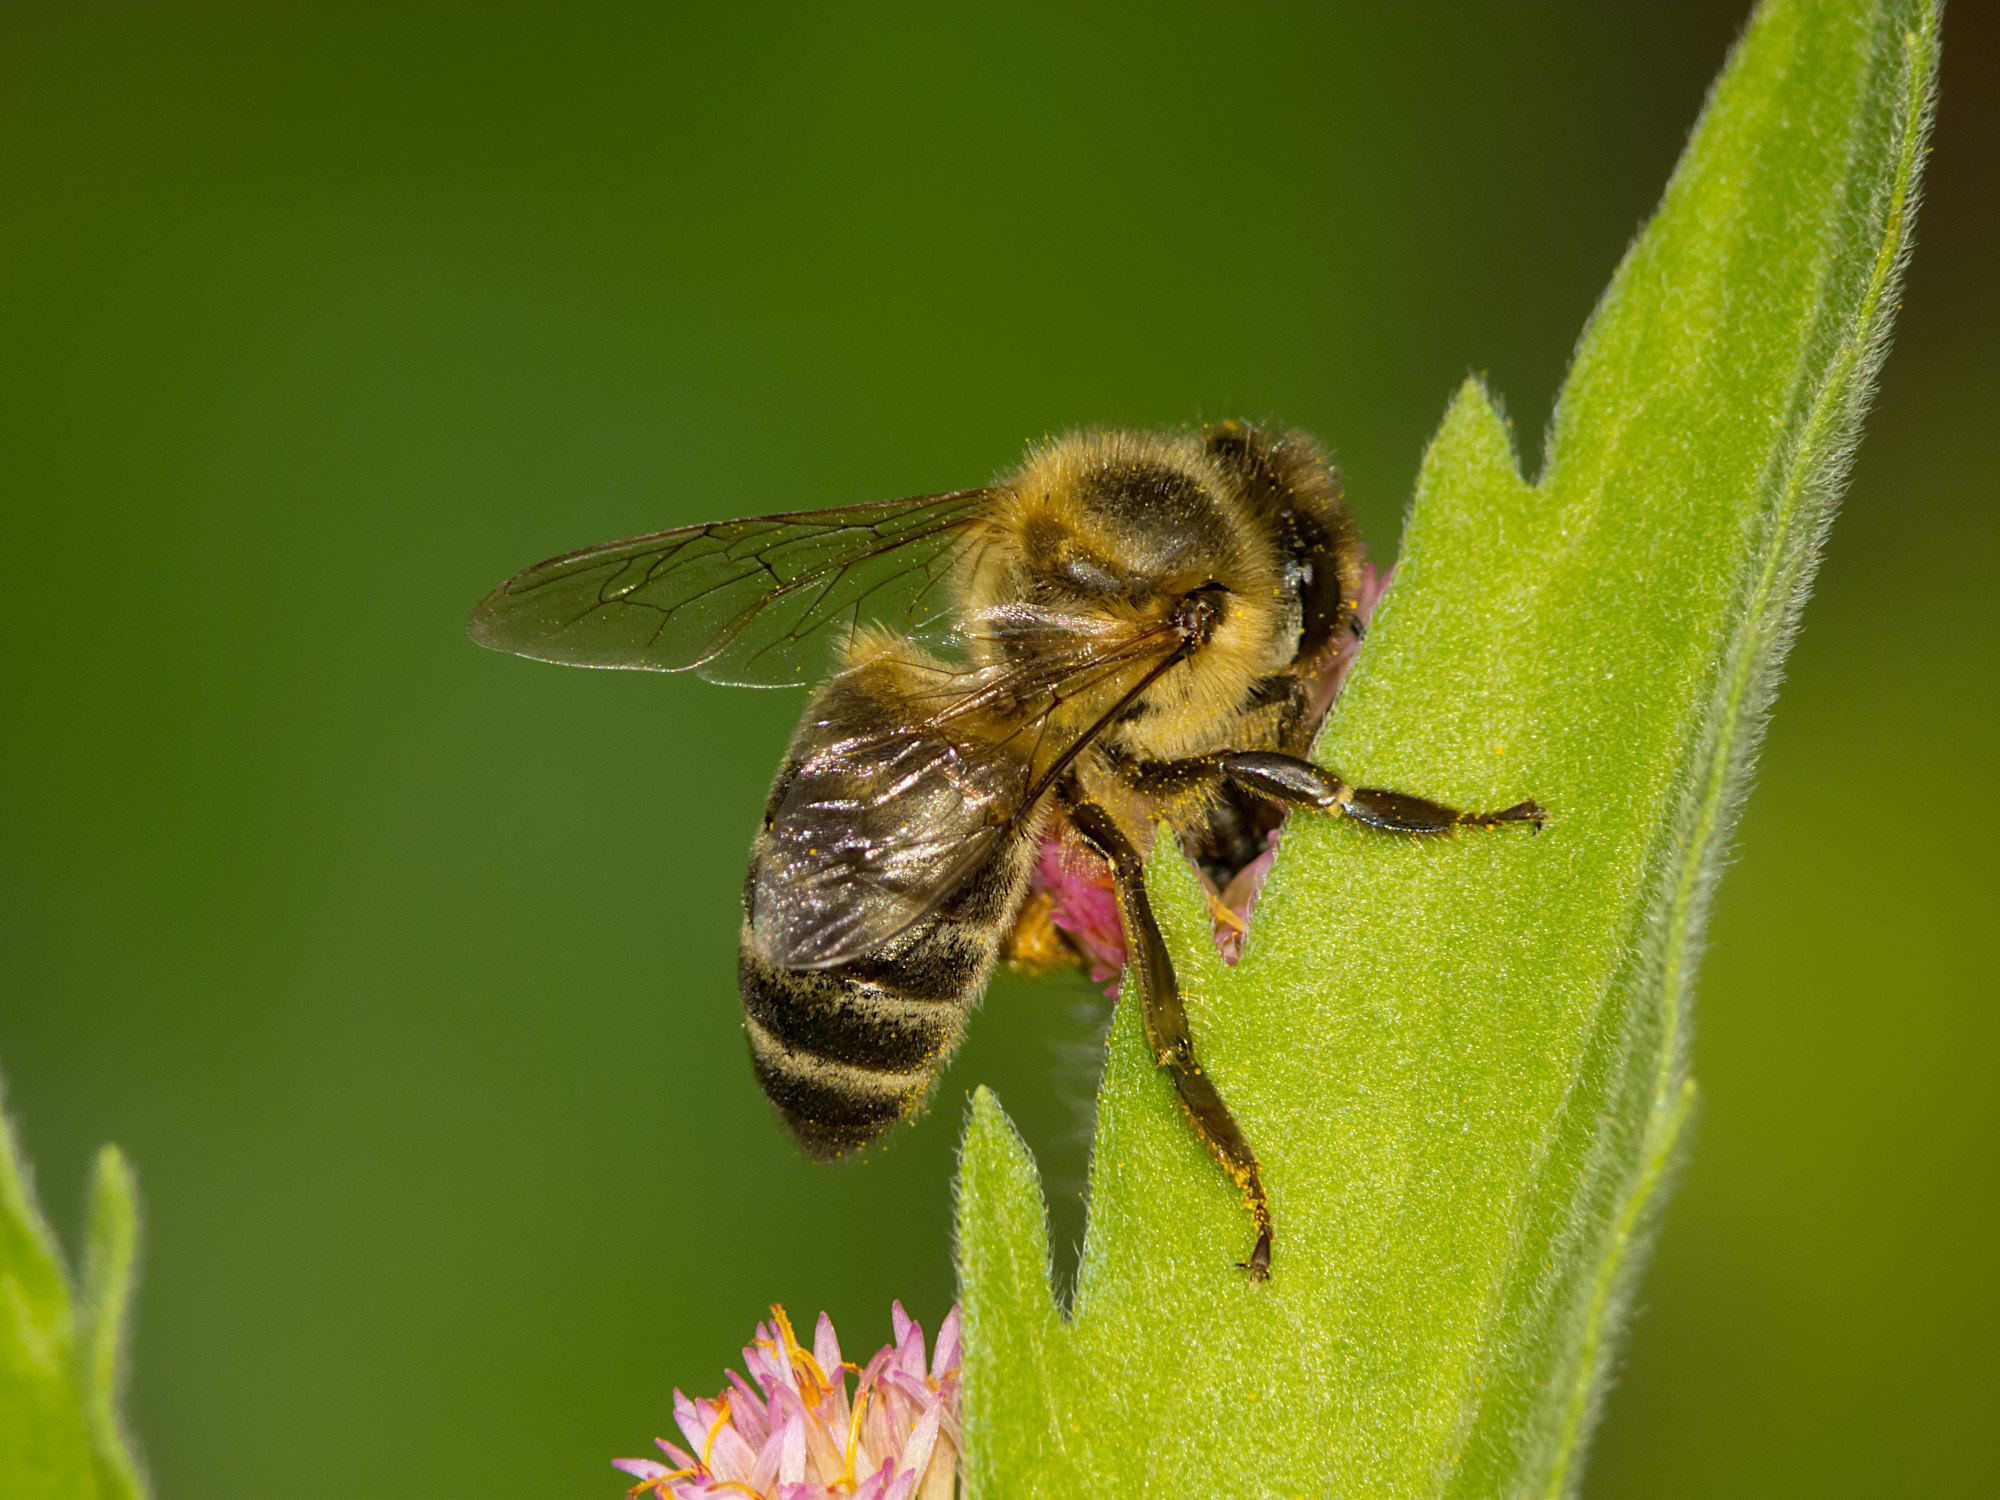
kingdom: Animalia
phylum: Arthropoda
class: Insecta
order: Hymenoptera
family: Apidae
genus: Apis
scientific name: Apis mellifera
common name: Honey bee
